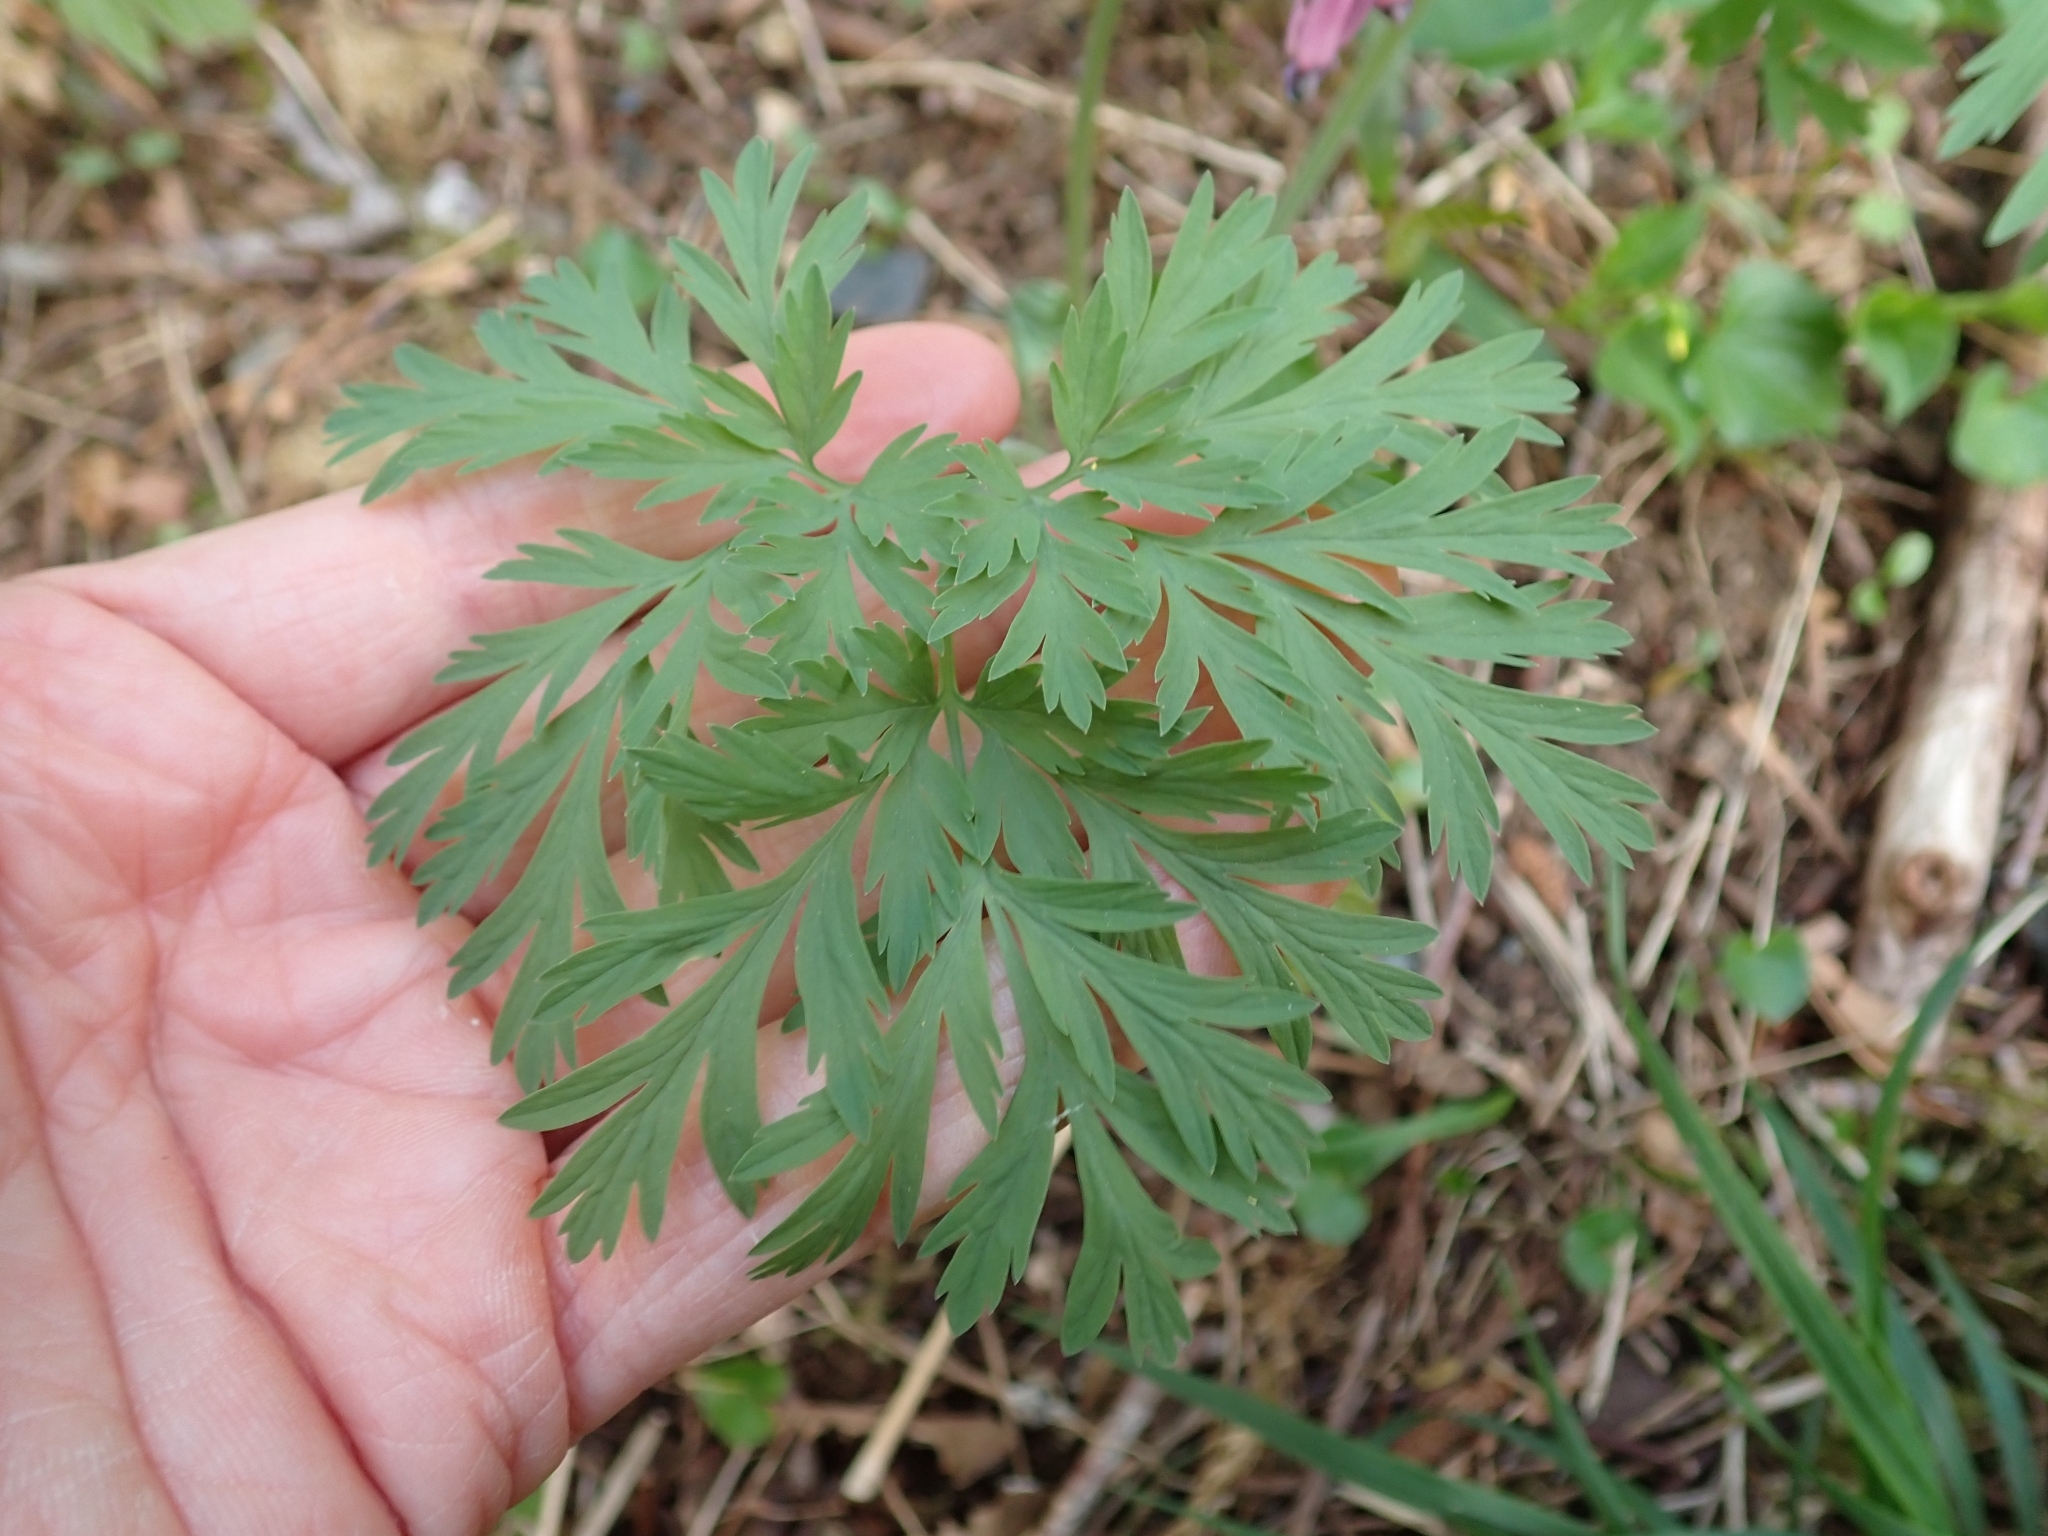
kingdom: Plantae
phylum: Tracheophyta
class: Magnoliopsida
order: Ranunculales
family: Papaveraceae
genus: Dicentra
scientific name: Dicentra formosa
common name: Bleeding-heart
